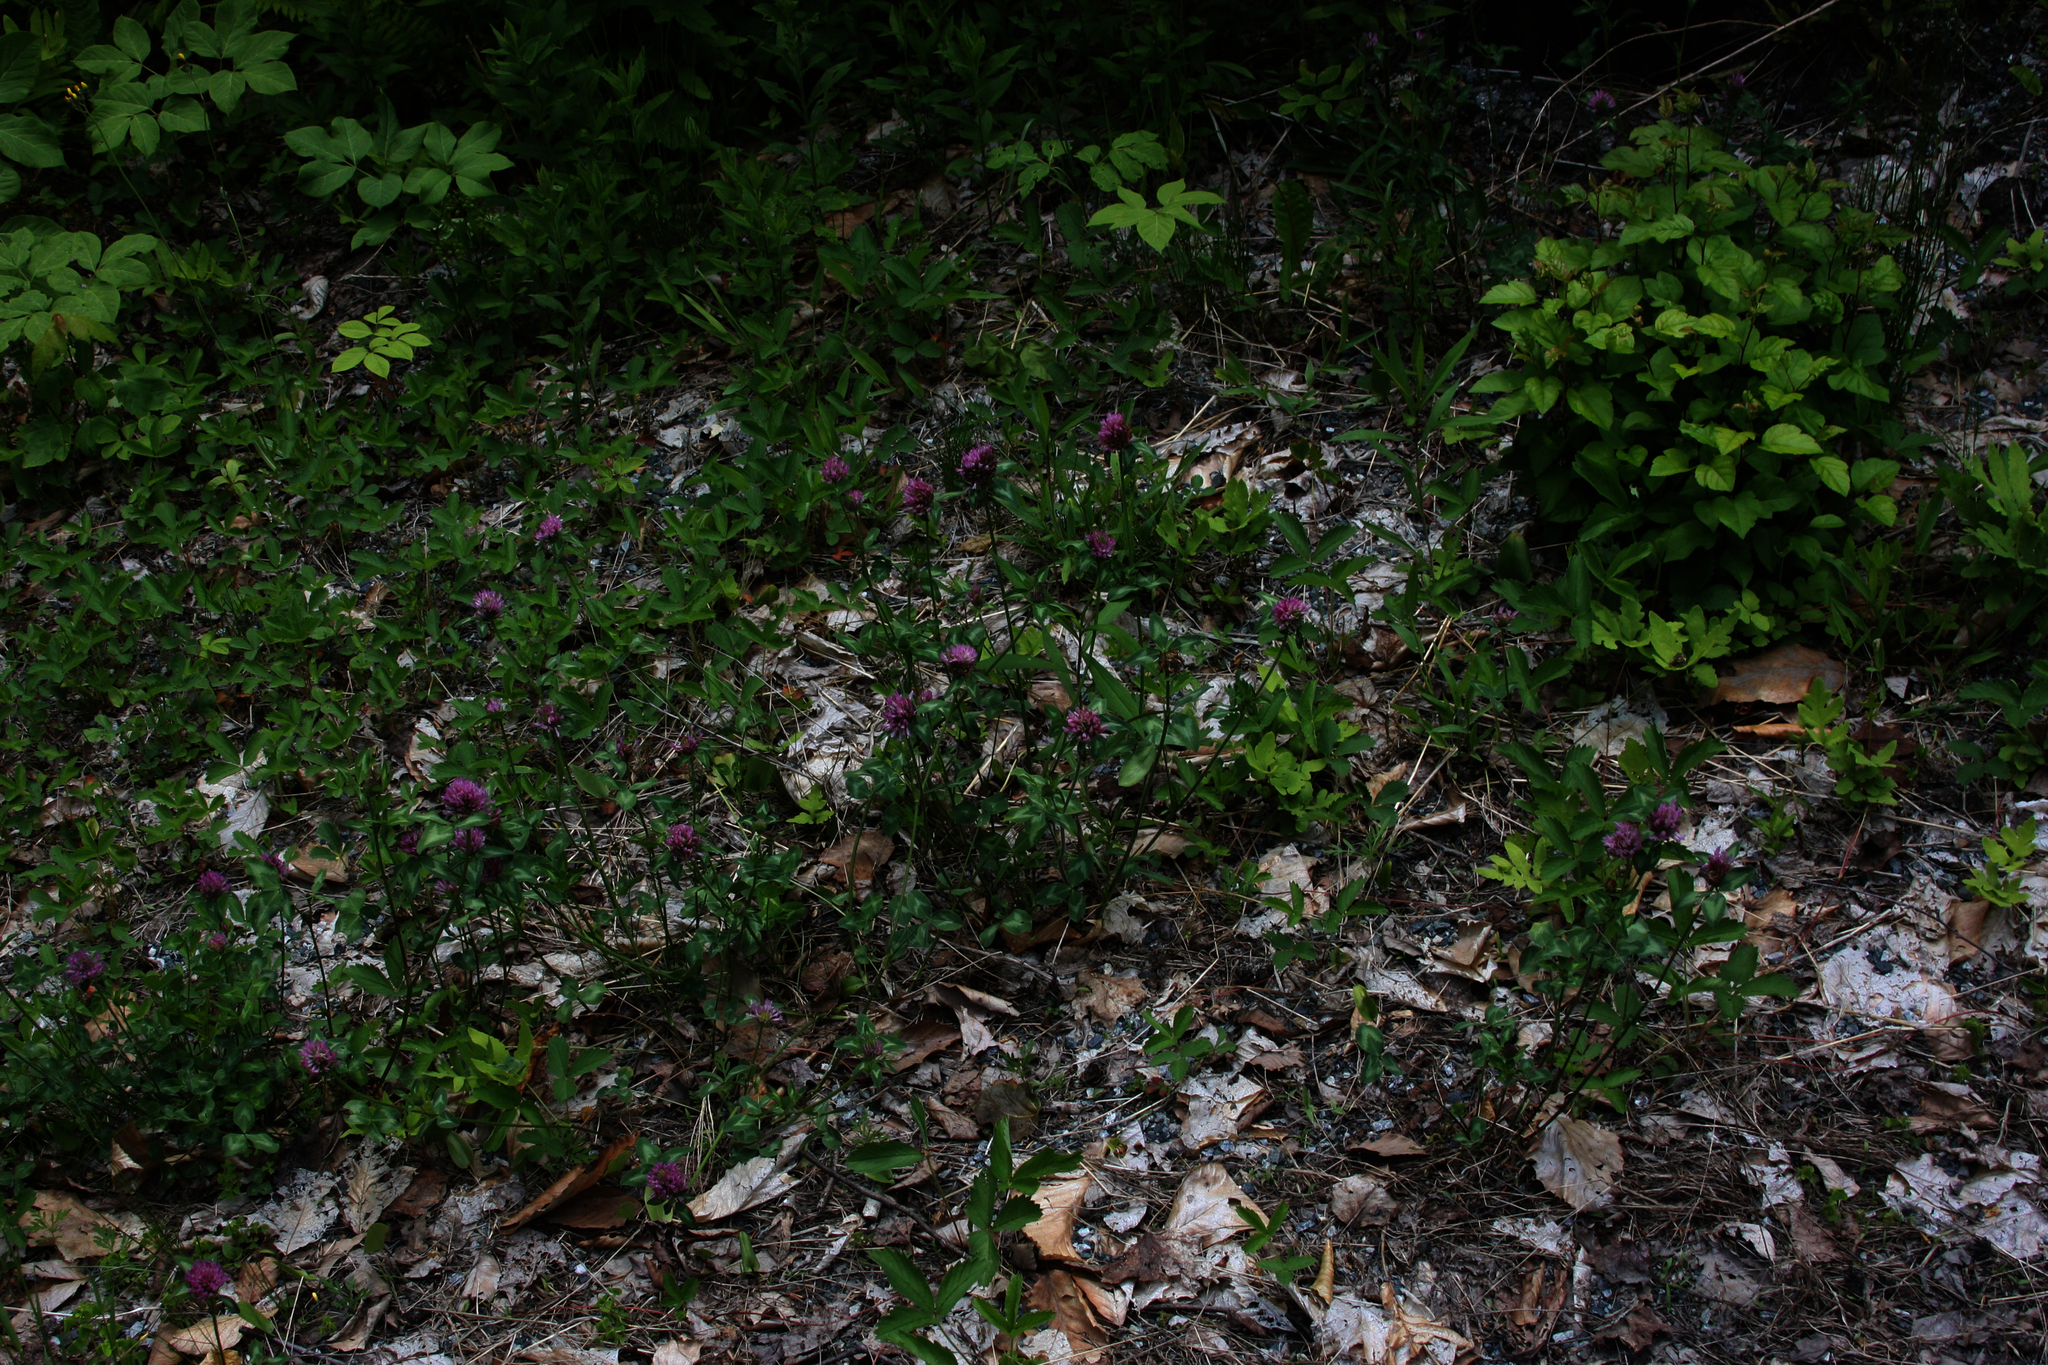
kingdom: Plantae
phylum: Tracheophyta
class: Magnoliopsida
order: Fabales
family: Fabaceae
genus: Trifolium
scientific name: Trifolium pratense
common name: Red clover
